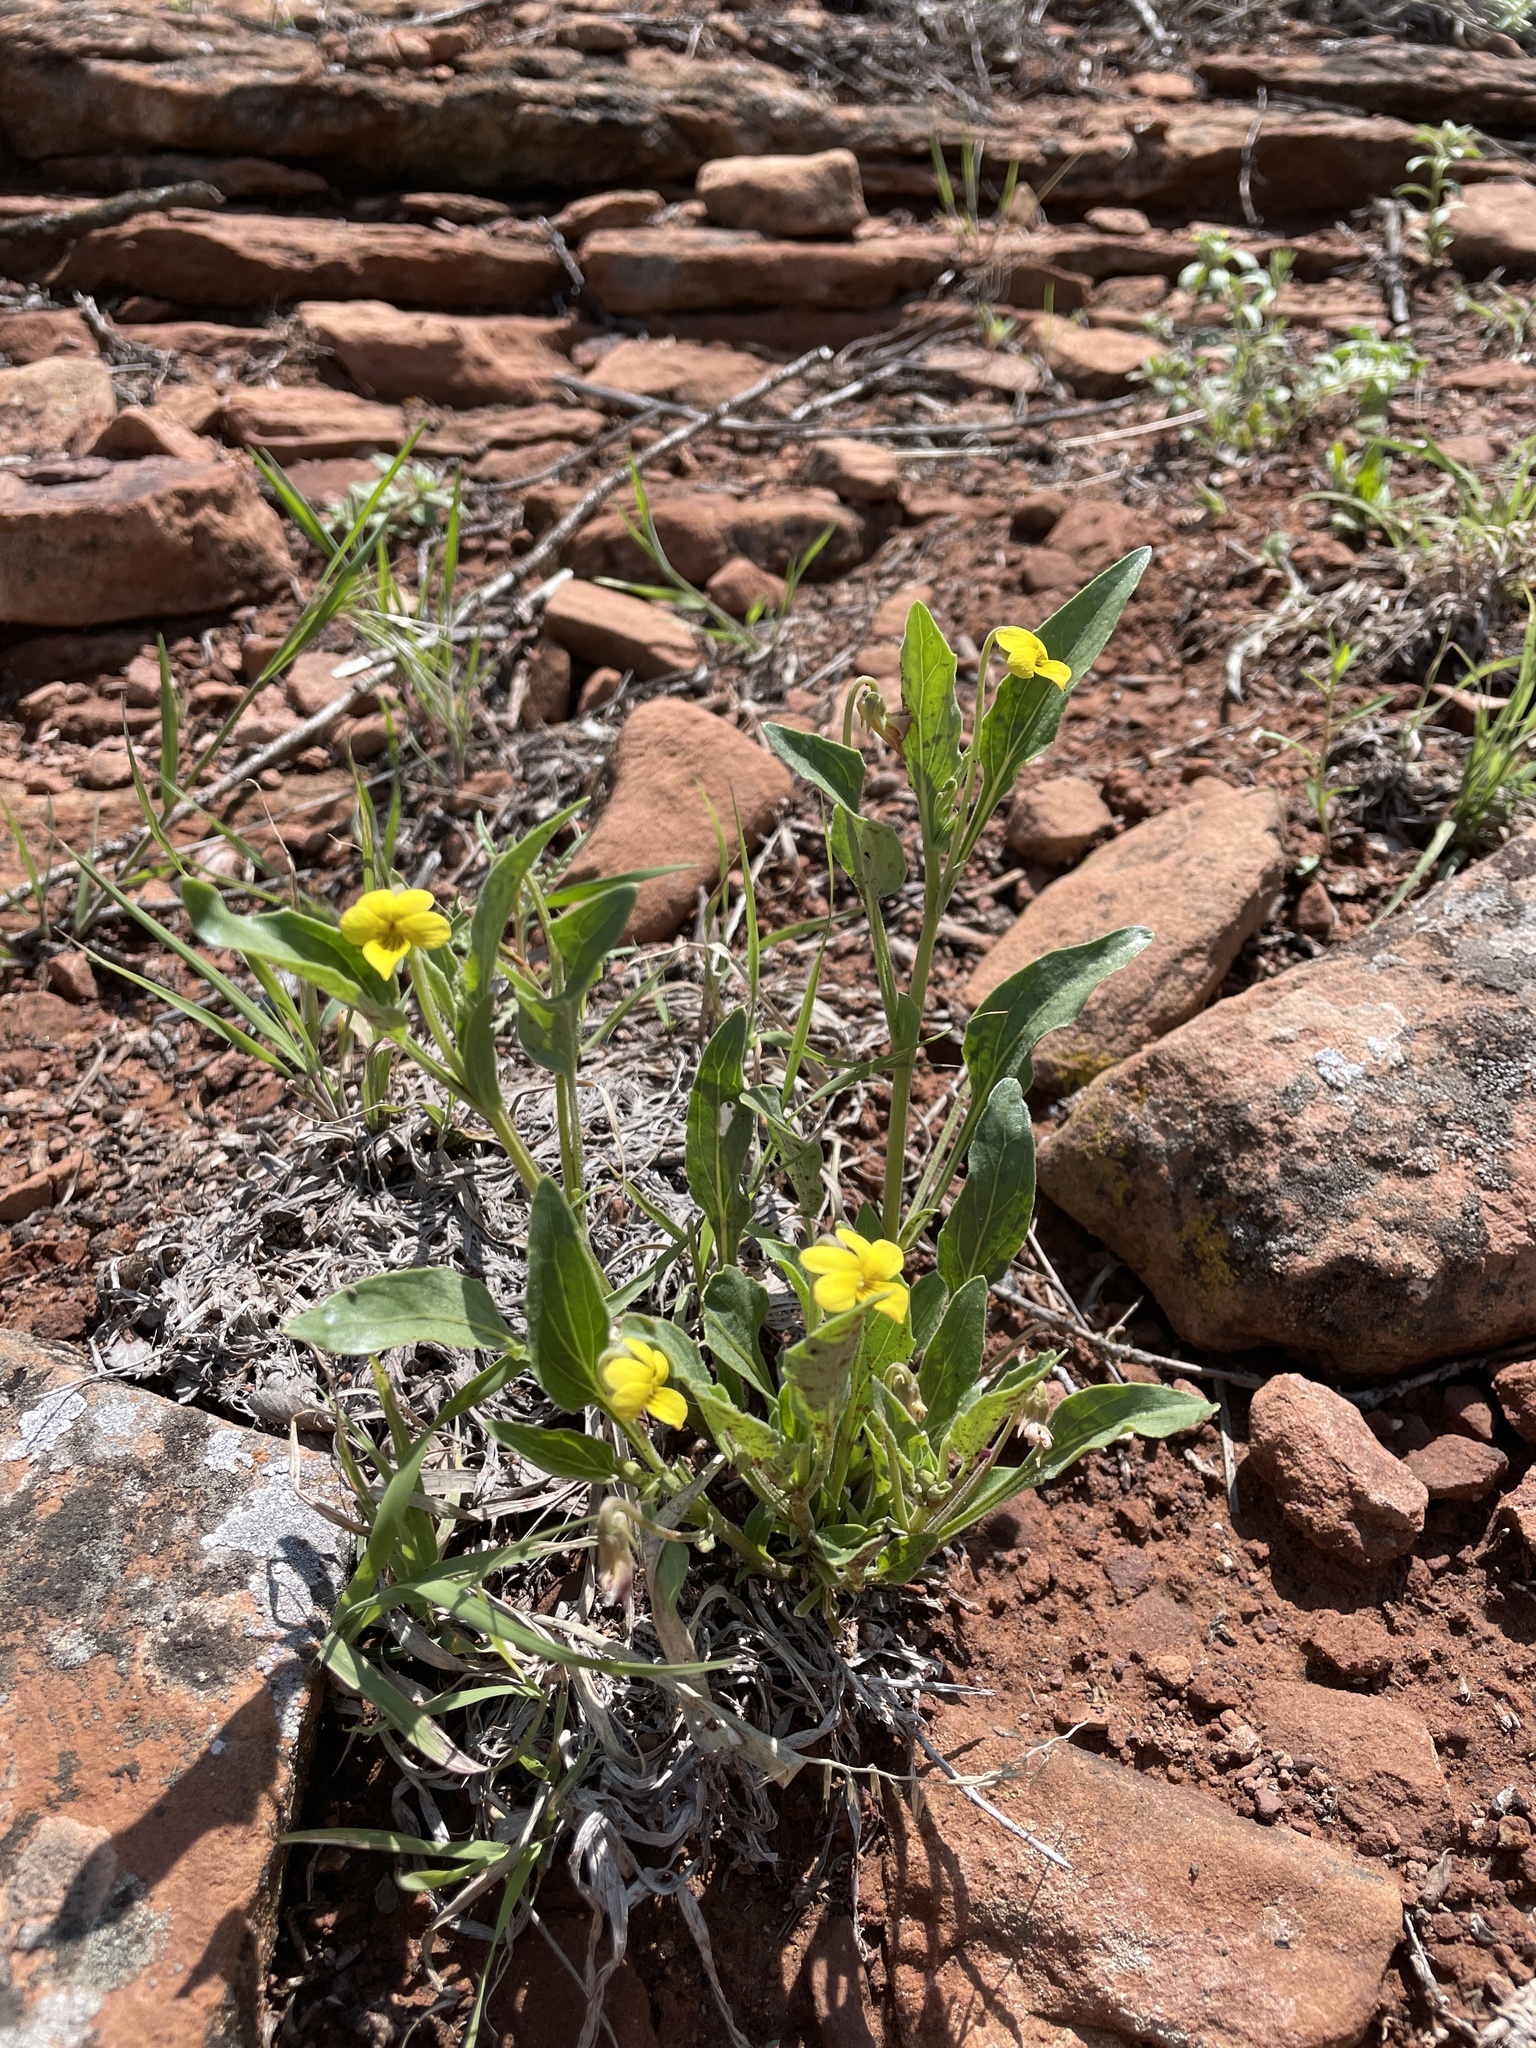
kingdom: Plantae
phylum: Tracheophyta
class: Magnoliopsida
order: Malpighiales
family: Violaceae
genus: Viola
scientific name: Viola nuttallii
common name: Yellow prairie violet
